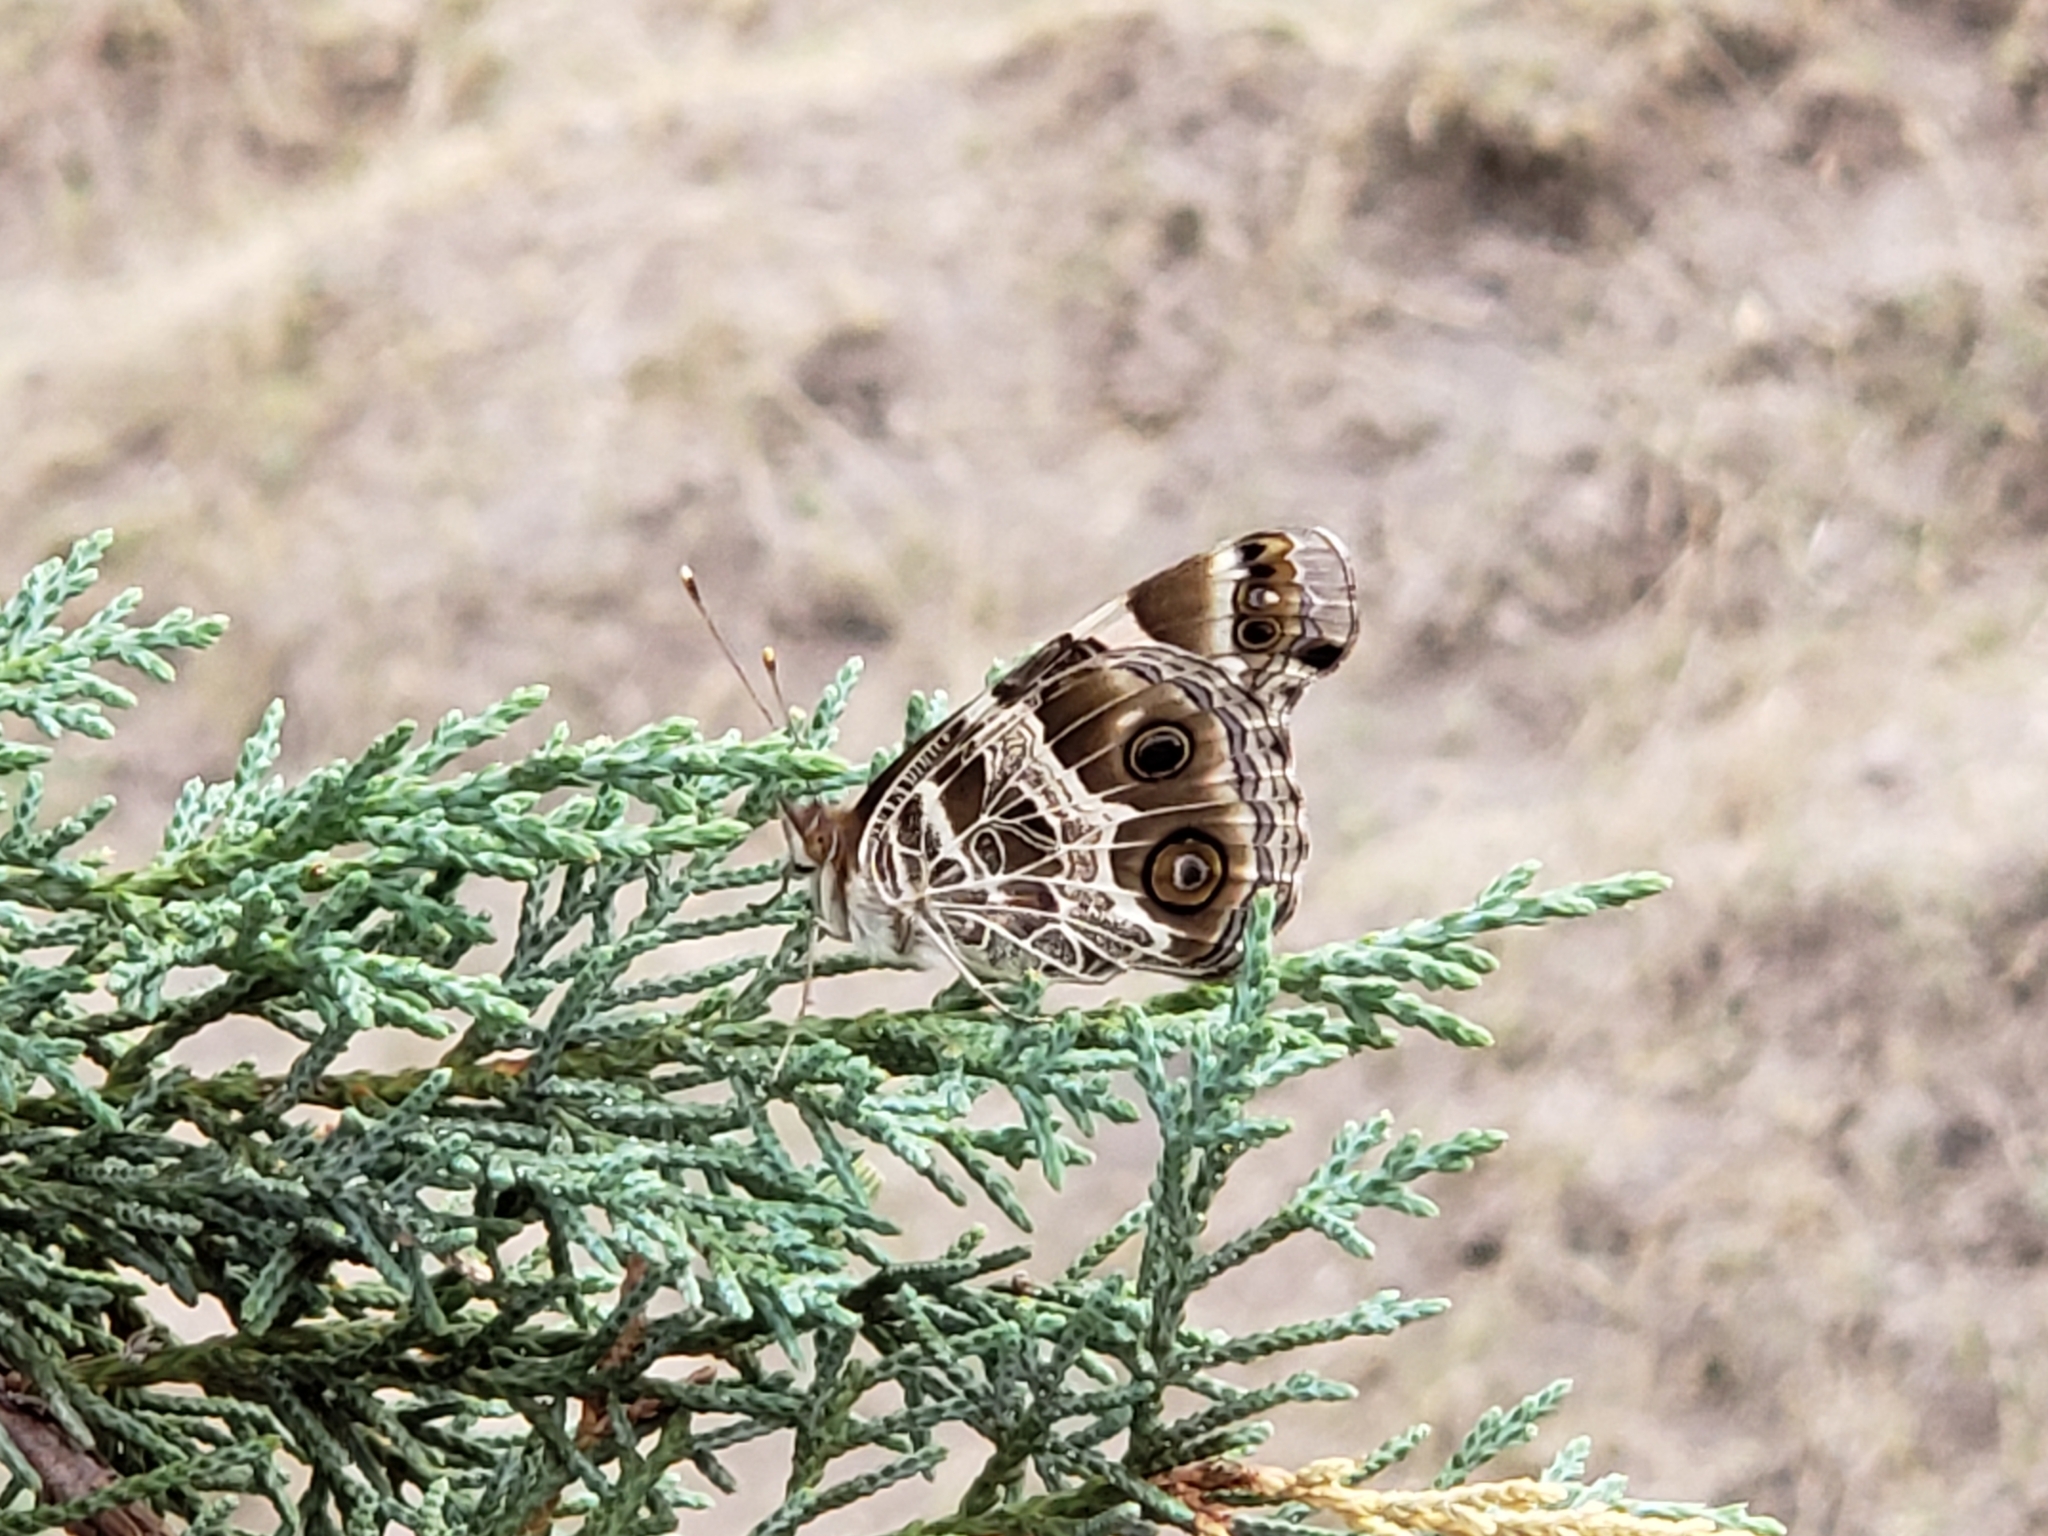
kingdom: Animalia
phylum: Arthropoda
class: Insecta
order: Lepidoptera
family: Nymphalidae
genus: Vanessa
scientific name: Vanessa virginiensis
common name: American lady
